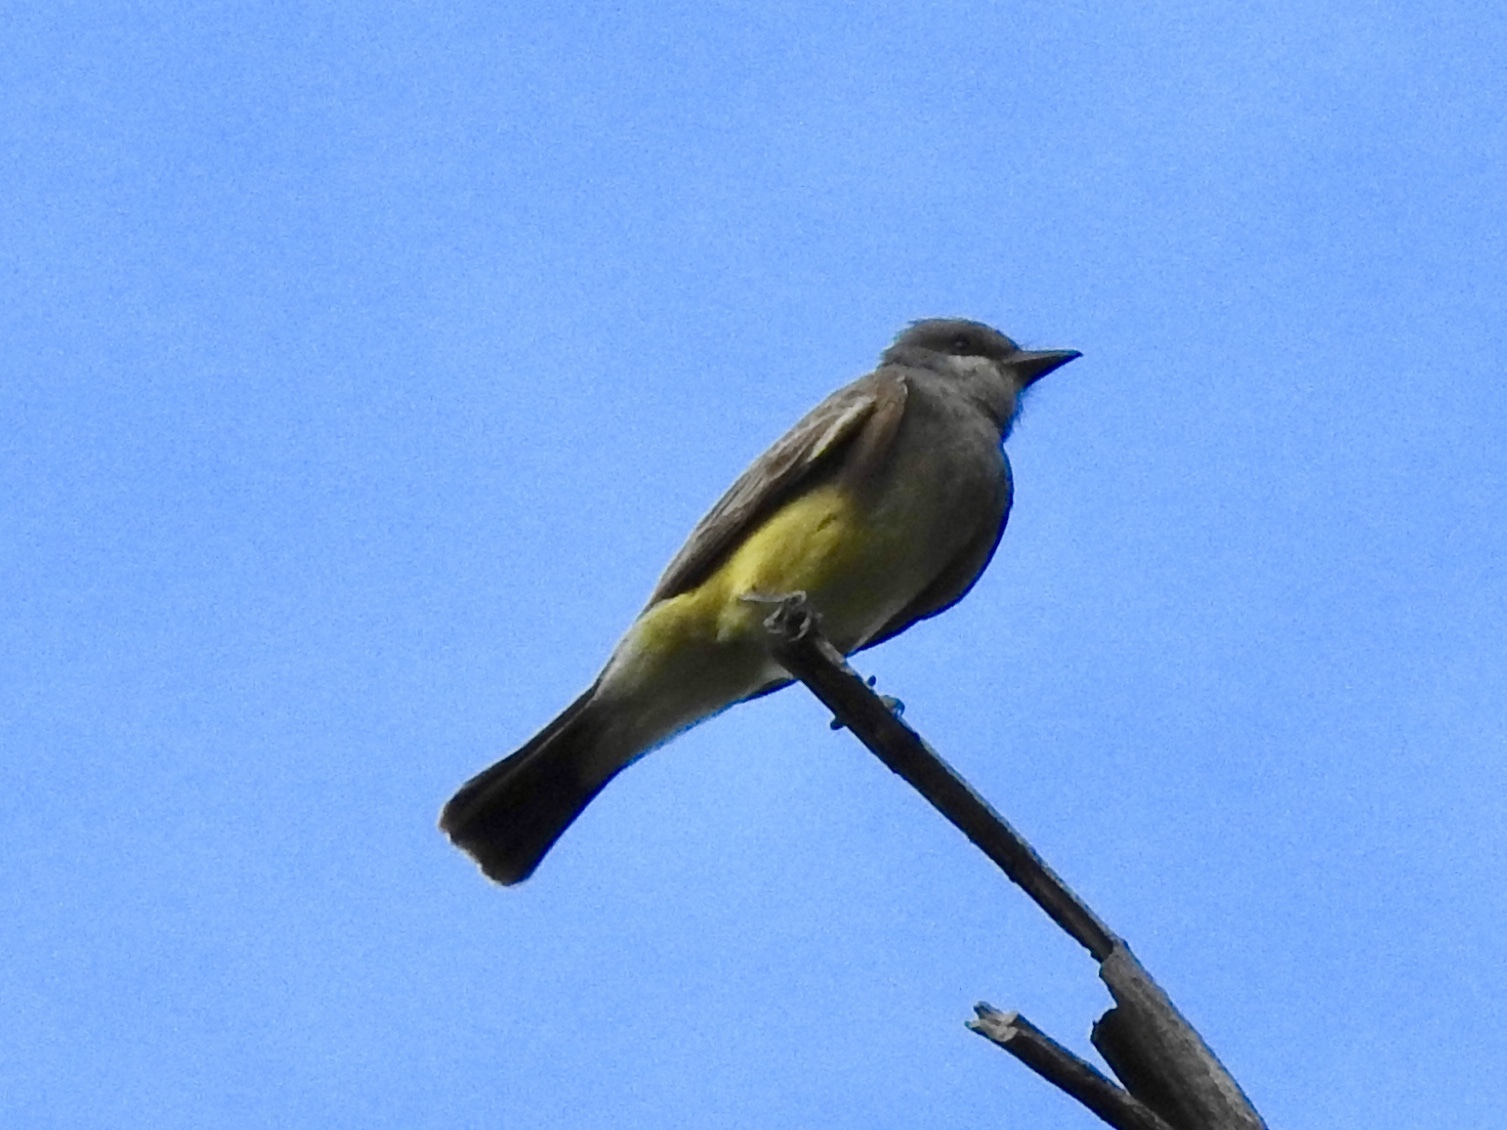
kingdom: Animalia
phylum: Chordata
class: Aves
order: Passeriformes
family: Tyrannidae
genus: Tyrannus
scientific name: Tyrannus vociferans
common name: Cassin's kingbird
